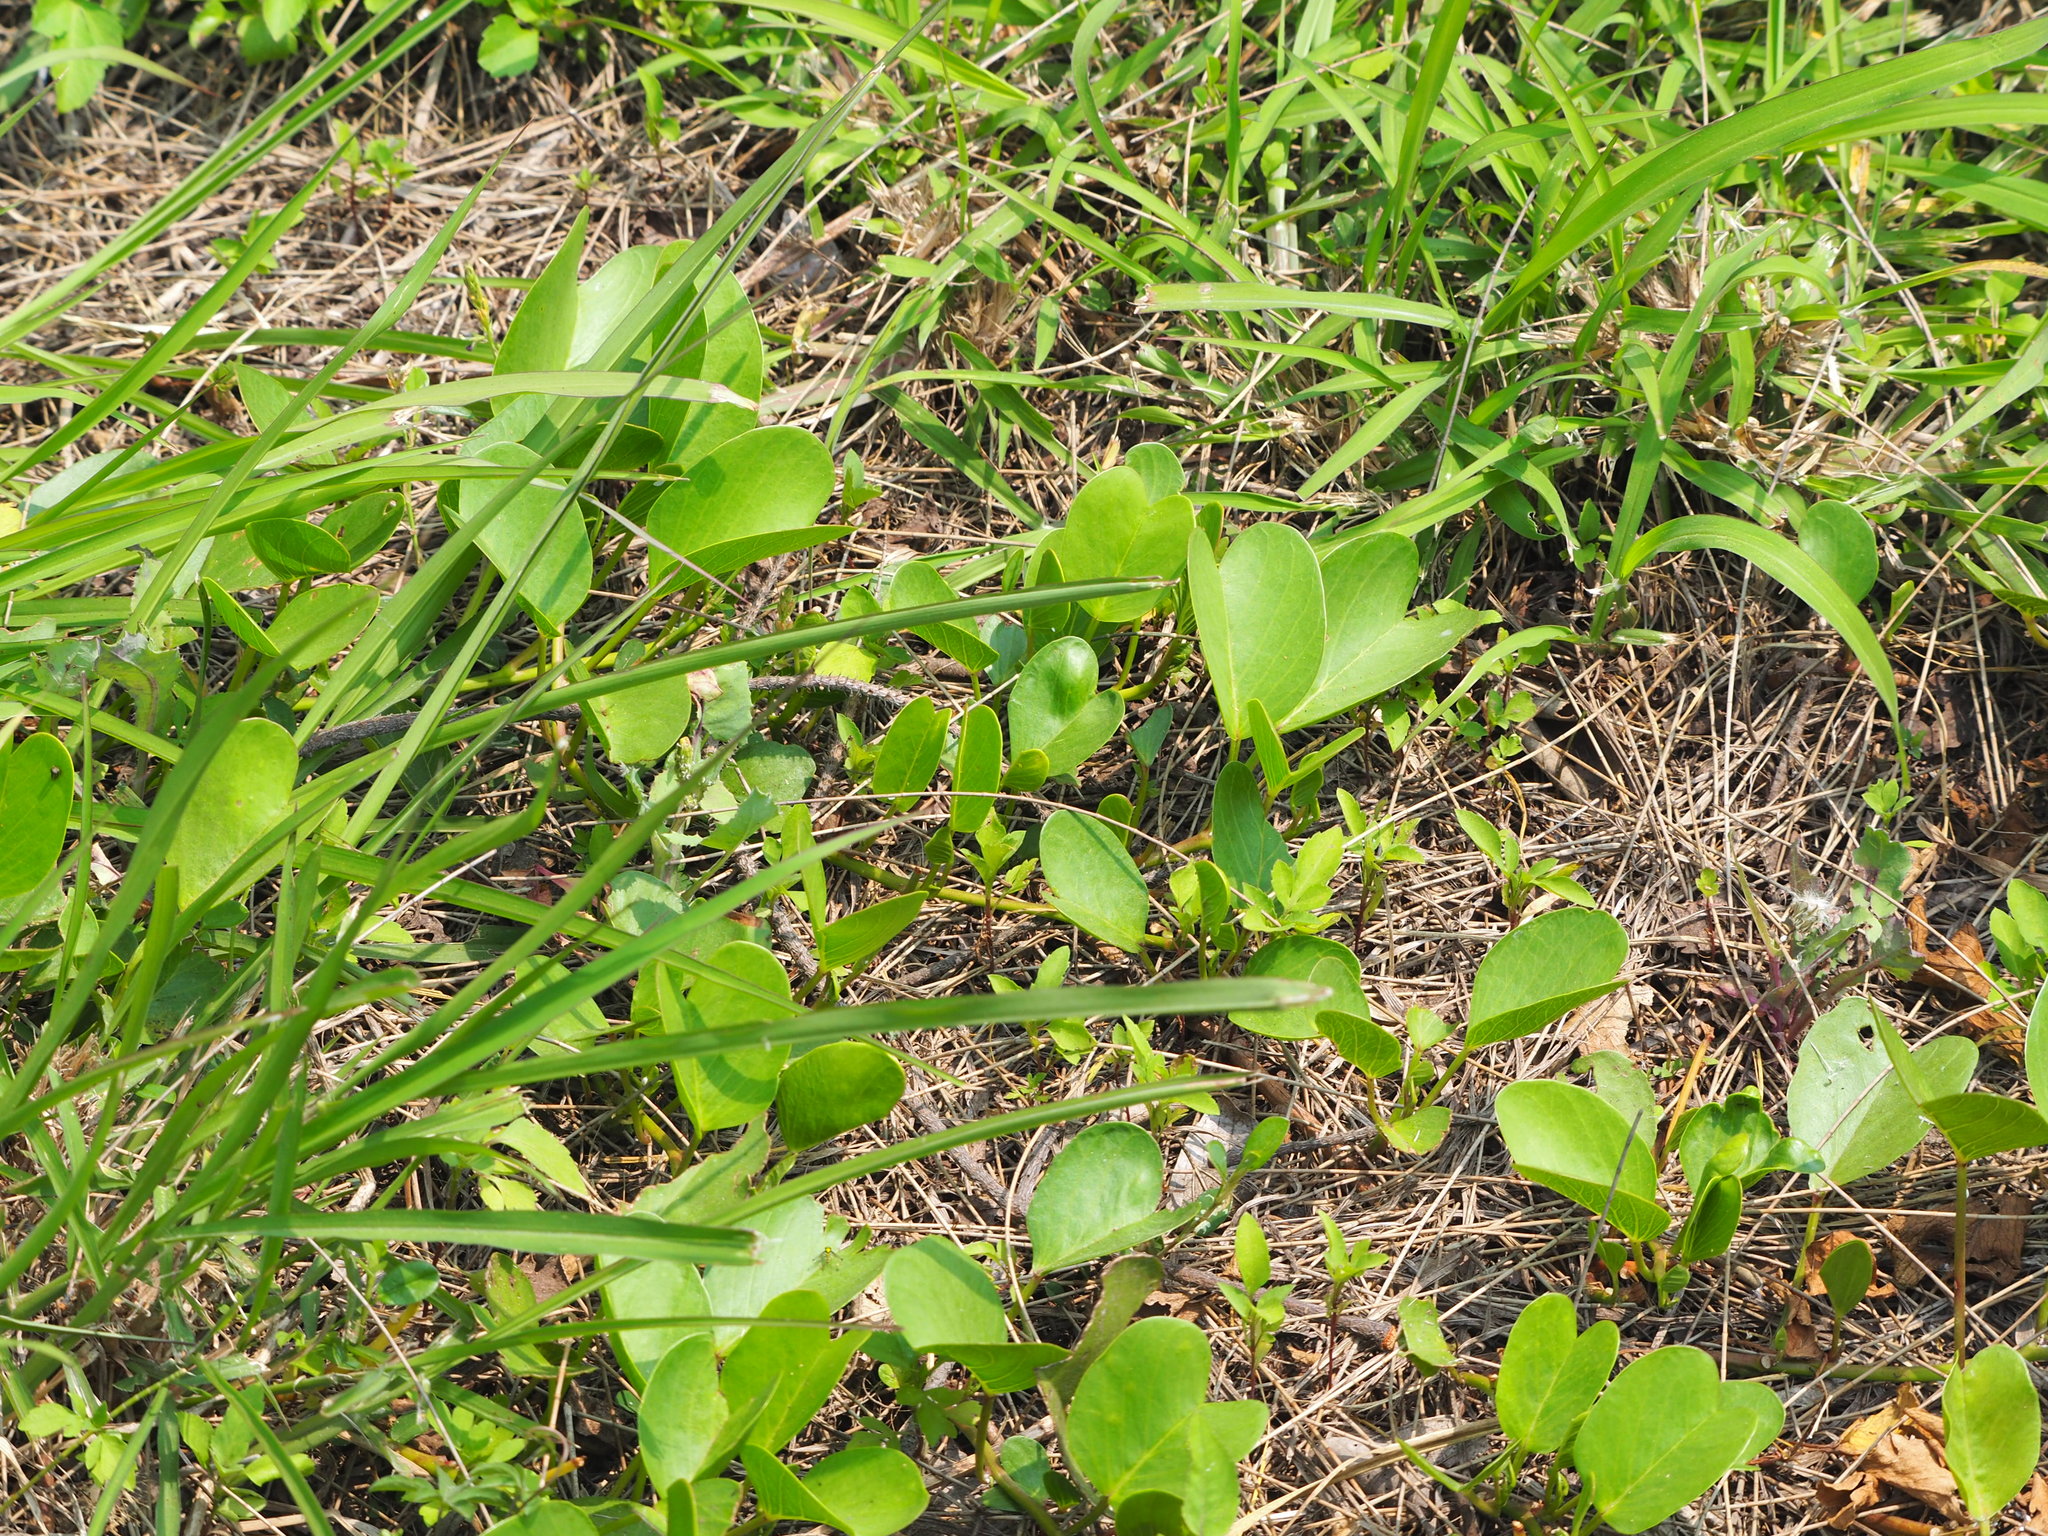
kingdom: Plantae
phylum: Tracheophyta
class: Magnoliopsida
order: Solanales
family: Convolvulaceae
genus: Ipomoea
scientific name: Ipomoea pes-caprae
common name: Beach morning glory
